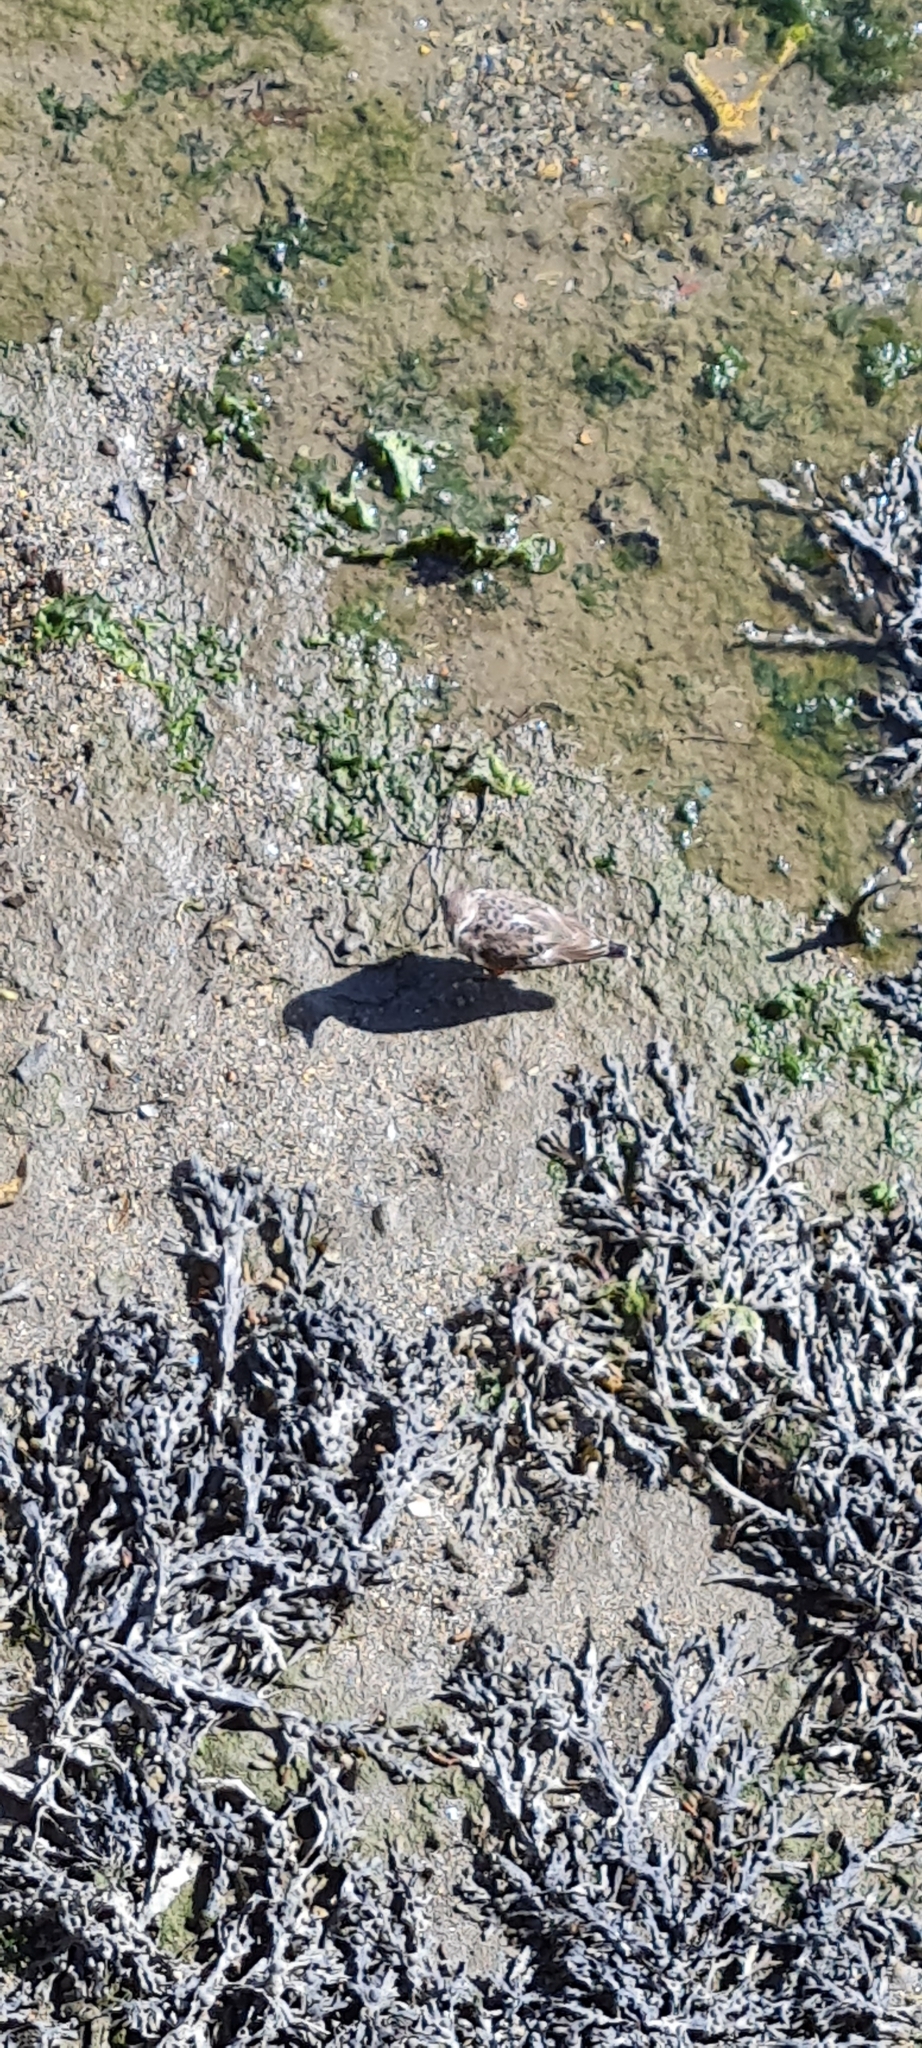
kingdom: Animalia
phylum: Chordata
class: Aves
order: Charadriiformes
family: Scolopacidae
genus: Arenaria
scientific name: Arenaria interpres
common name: Ruddy turnstone
